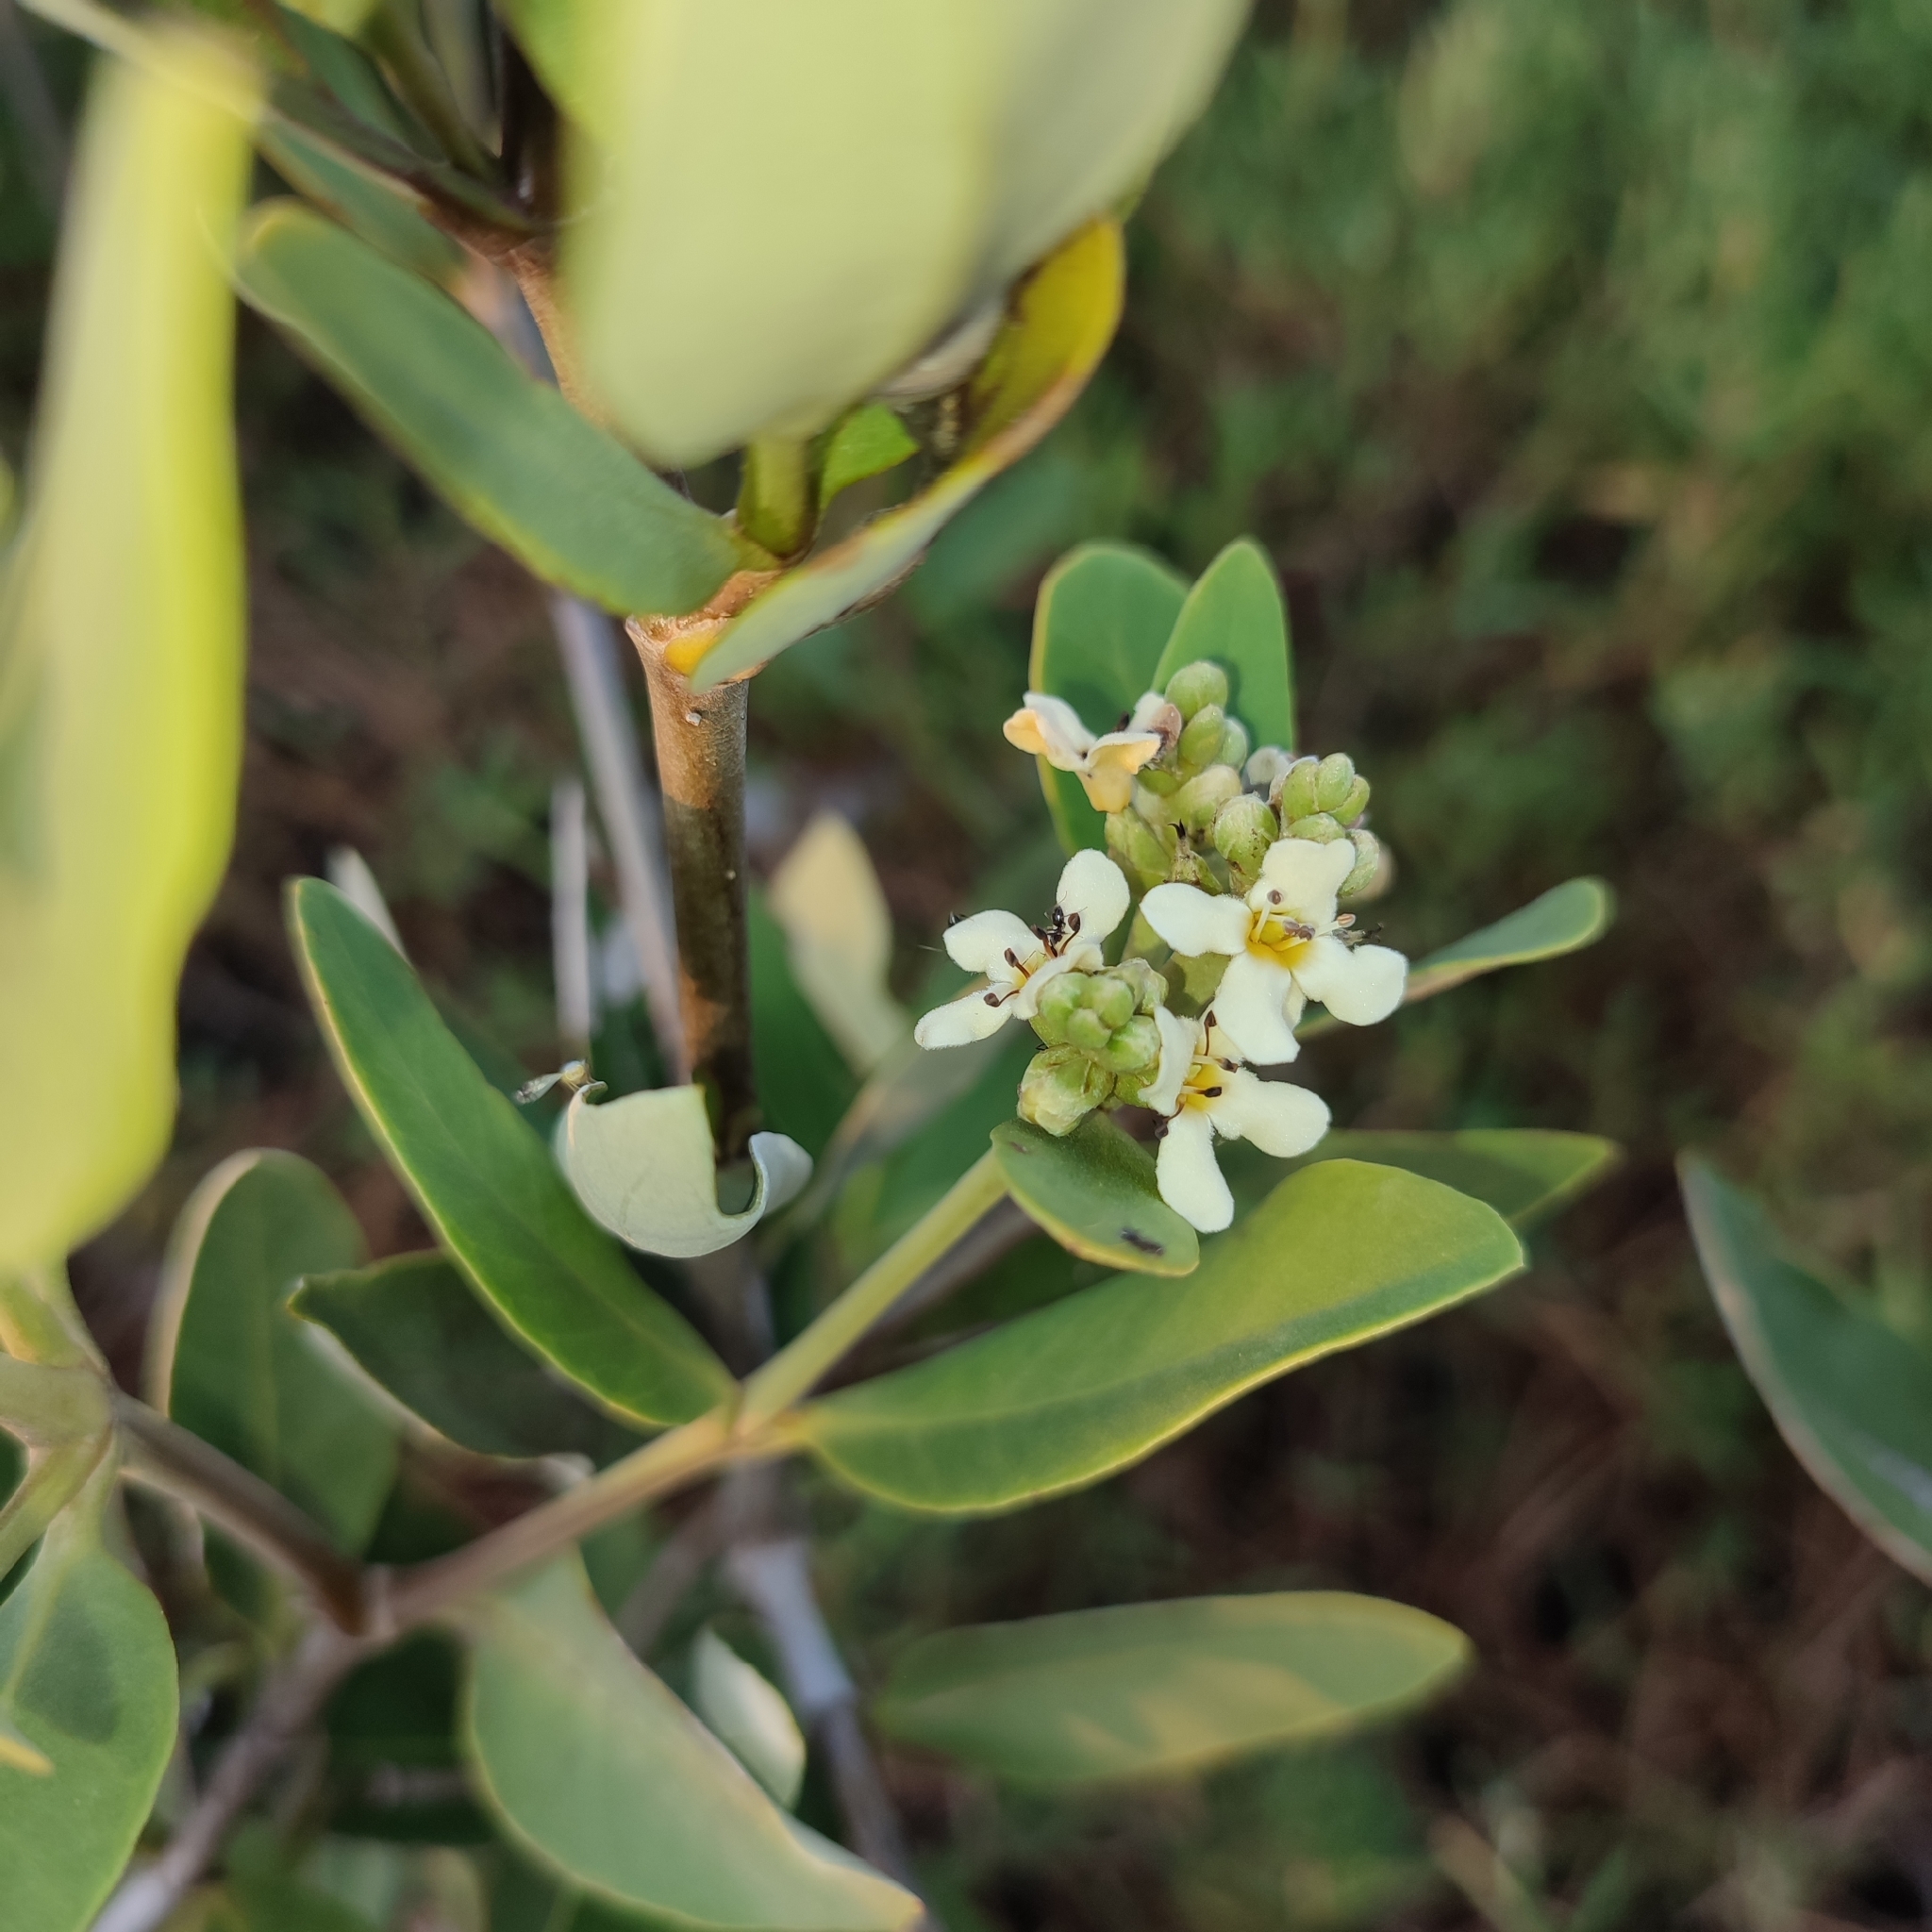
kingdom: Plantae
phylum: Tracheophyta
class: Magnoliopsida
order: Lamiales
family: Acanthaceae
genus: Avicennia
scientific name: Avicennia germinans
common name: Black mangrove
